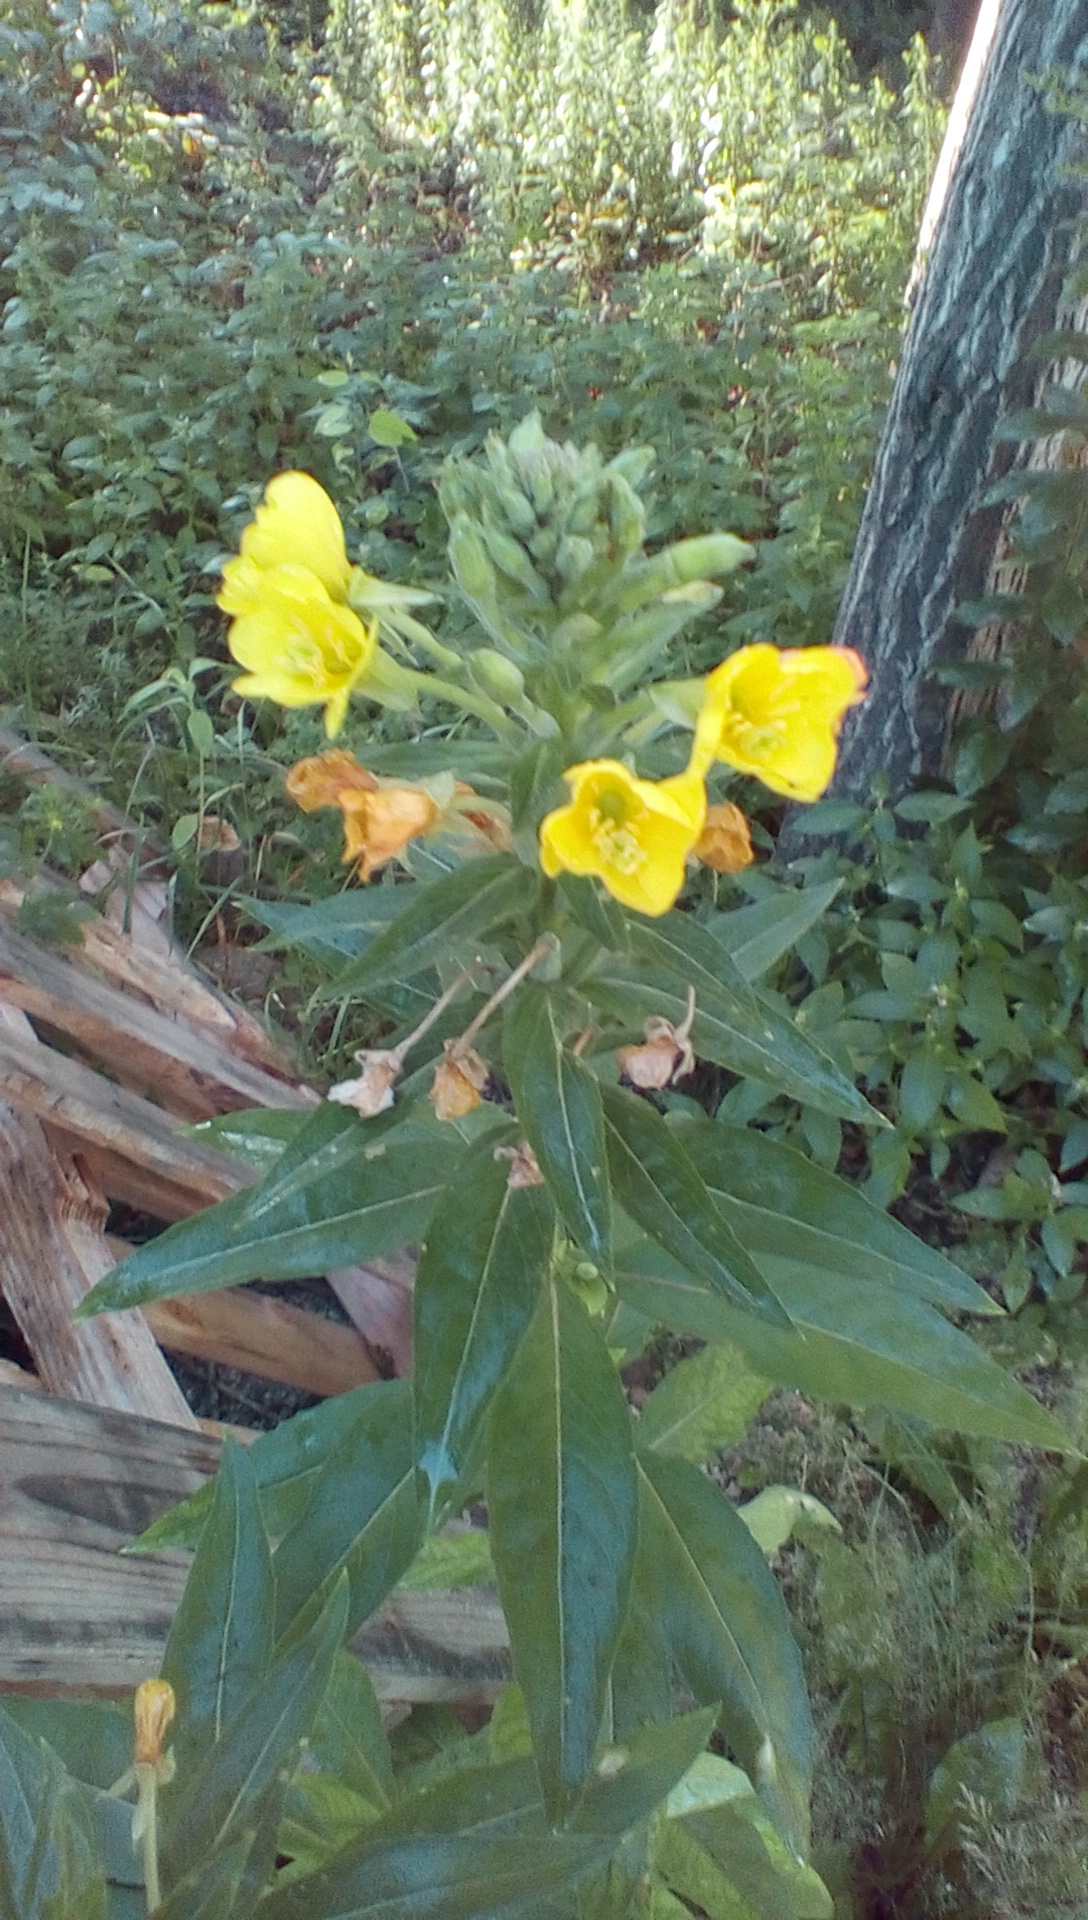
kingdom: Plantae
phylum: Tracheophyta
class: Magnoliopsida
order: Myrtales
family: Onagraceae
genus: Oenothera
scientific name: Oenothera parviflora
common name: Least evening-primrose
